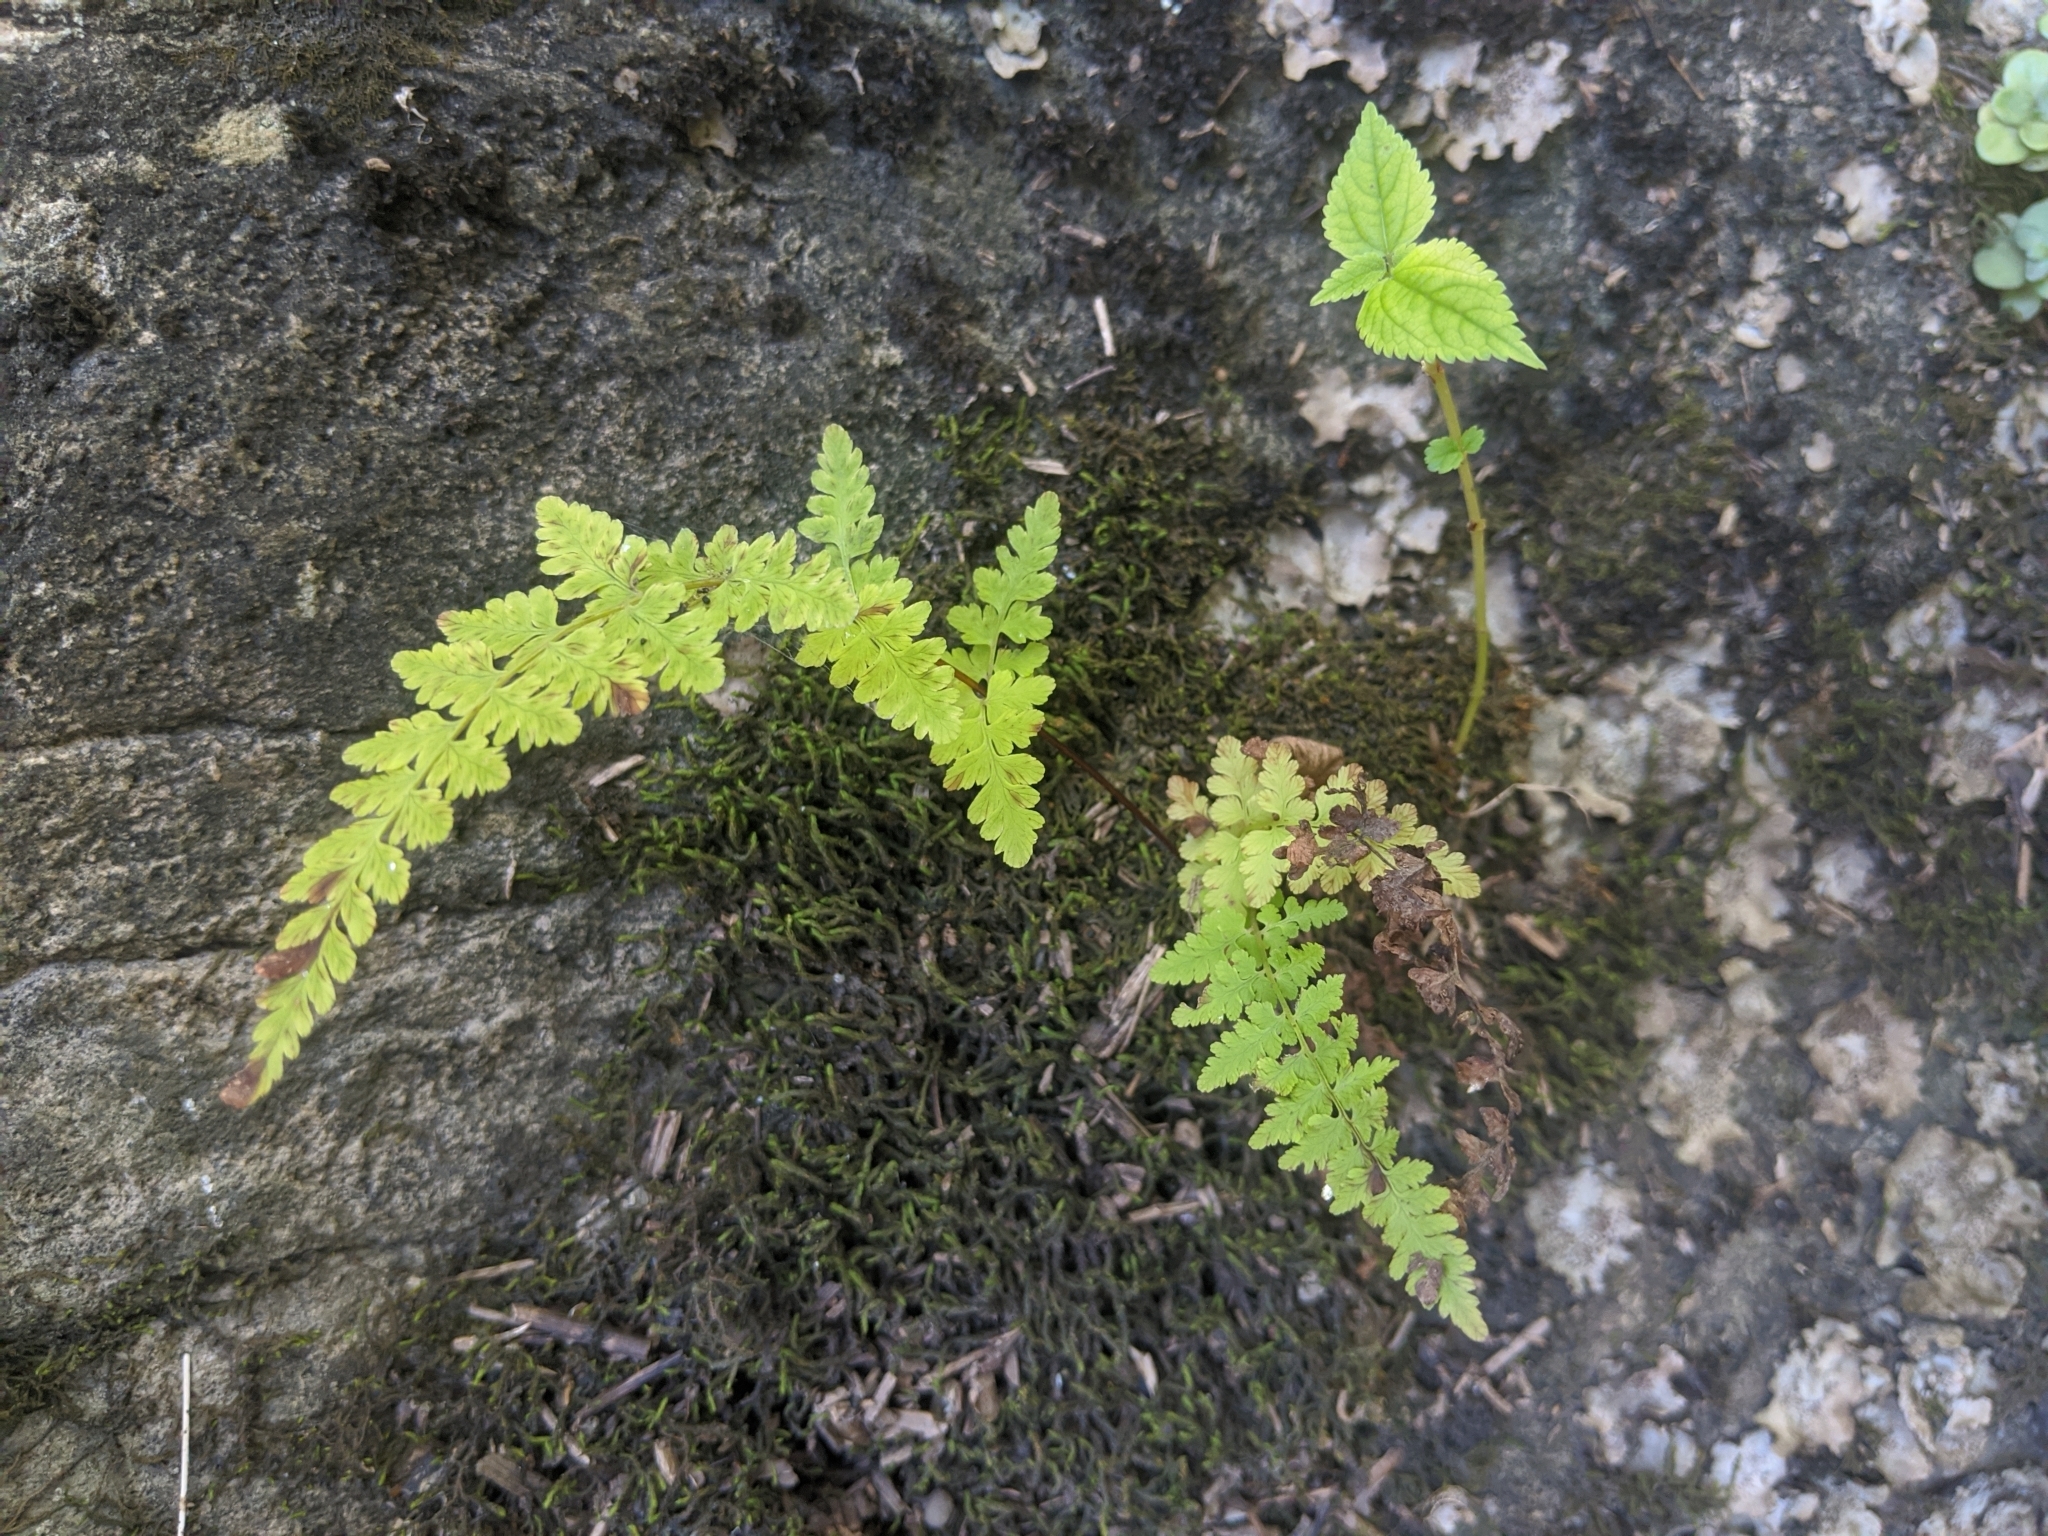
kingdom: Plantae
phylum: Tracheophyta
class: Polypodiopsida
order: Polypodiales
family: Cystopteridaceae
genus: Cystopteris
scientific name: Cystopteris bulbifera
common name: Bulblet bladder fern
